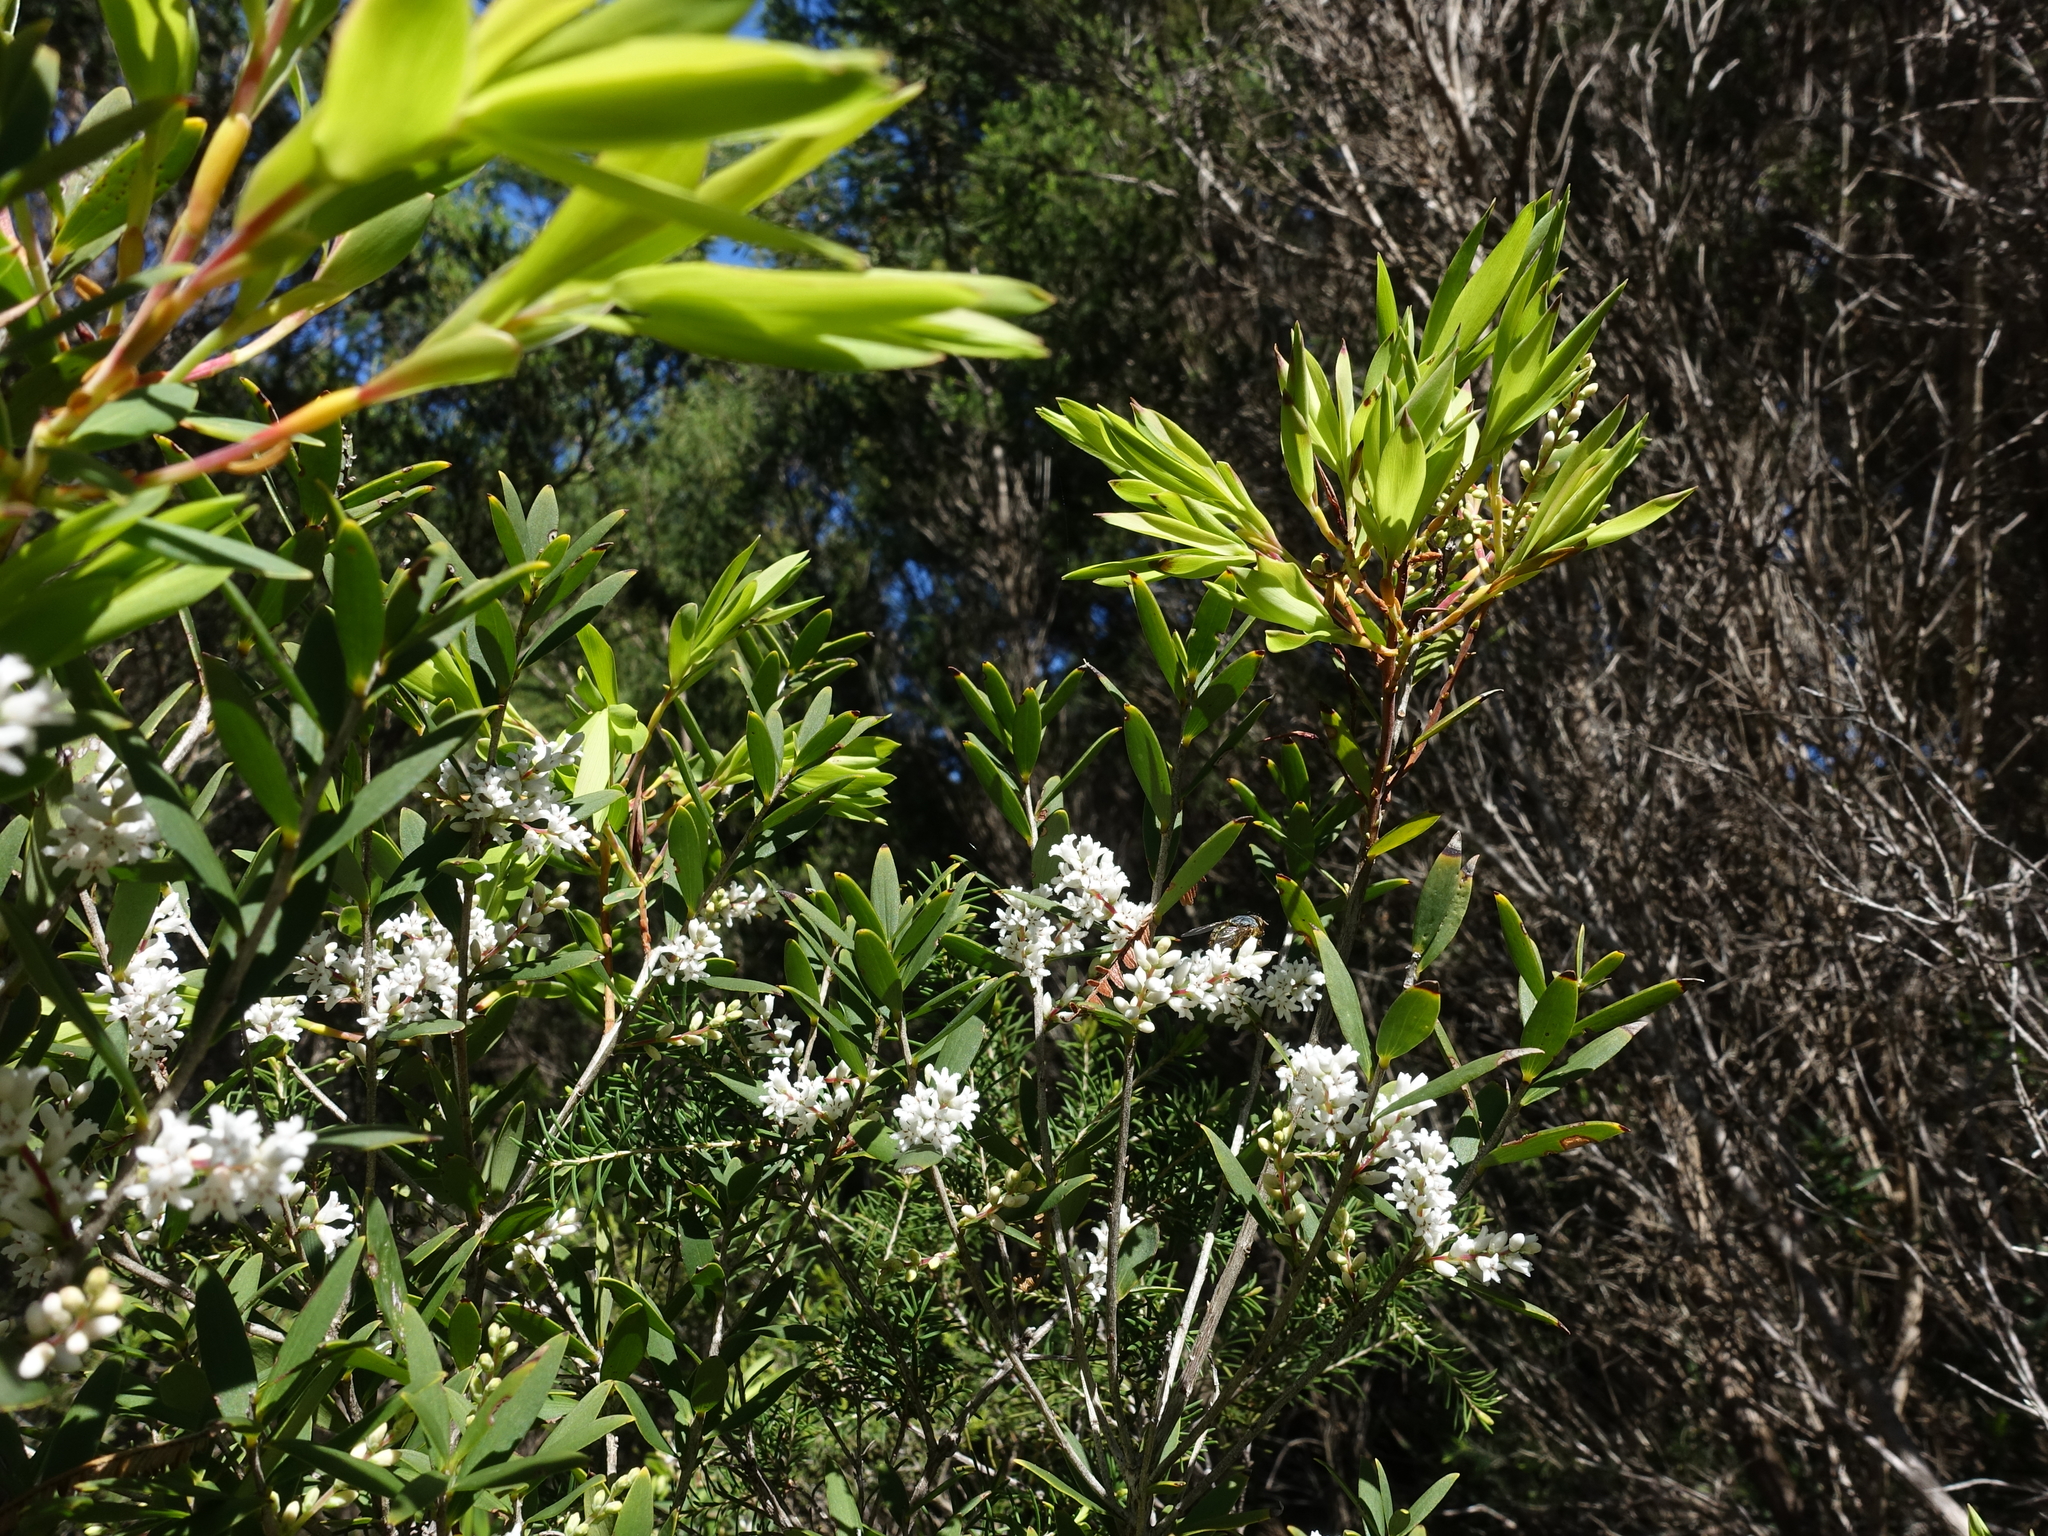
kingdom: Plantae
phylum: Tracheophyta
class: Magnoliopsida
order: Ericales
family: Ericaceae
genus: Leucopogon
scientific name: Leucopogon australis
